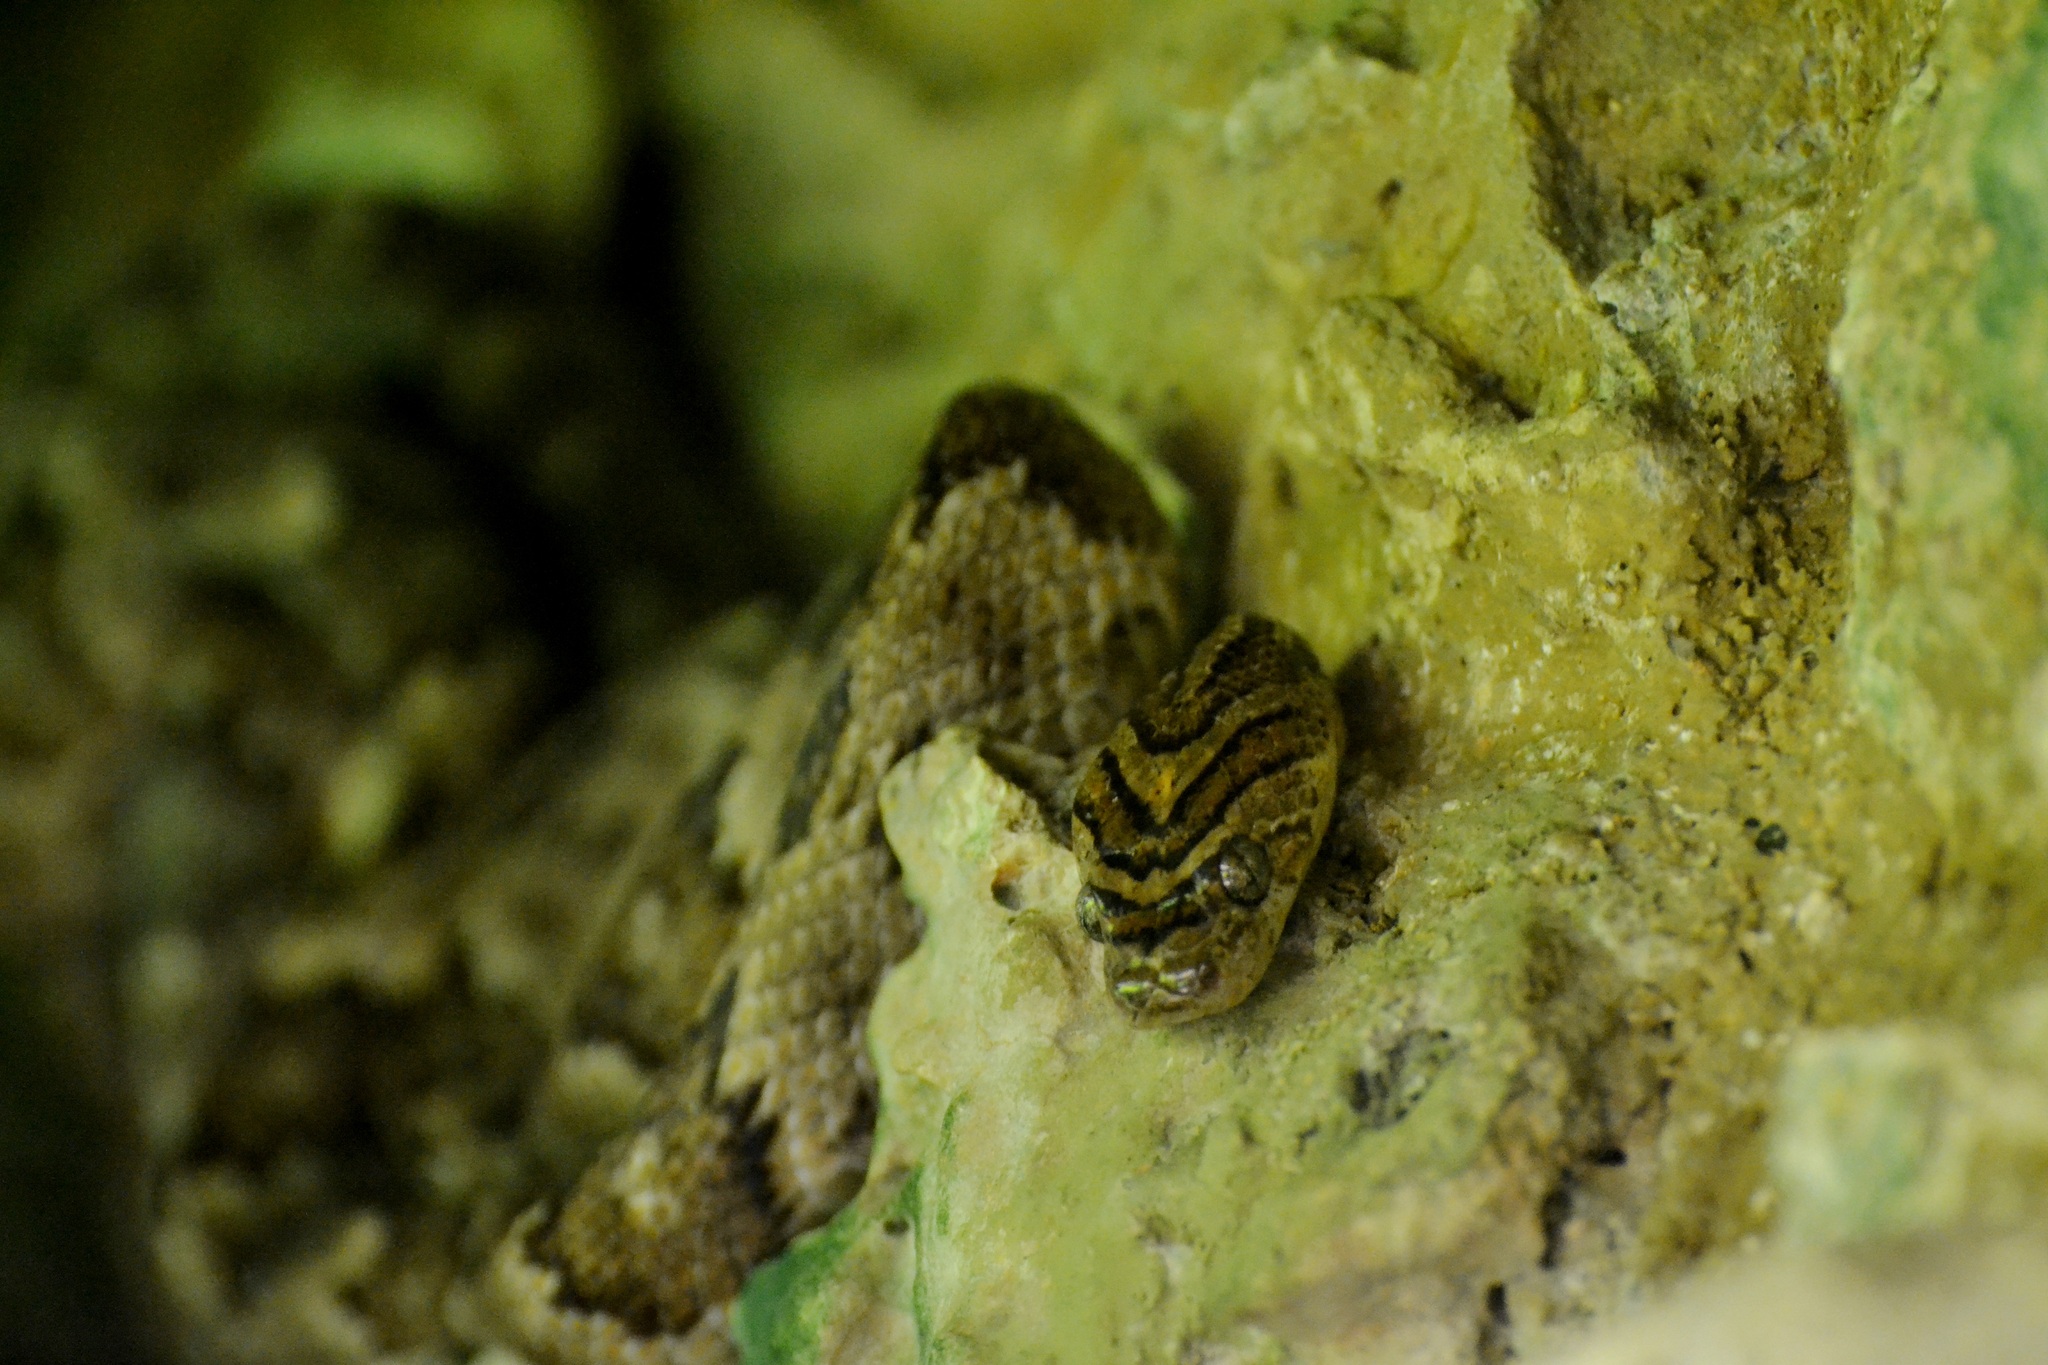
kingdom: Animalia
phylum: Chordata
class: Squamata
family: Colubridae
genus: Trimorphodon
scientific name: Trimorphodon biscutatus
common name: Costal lyre snake
